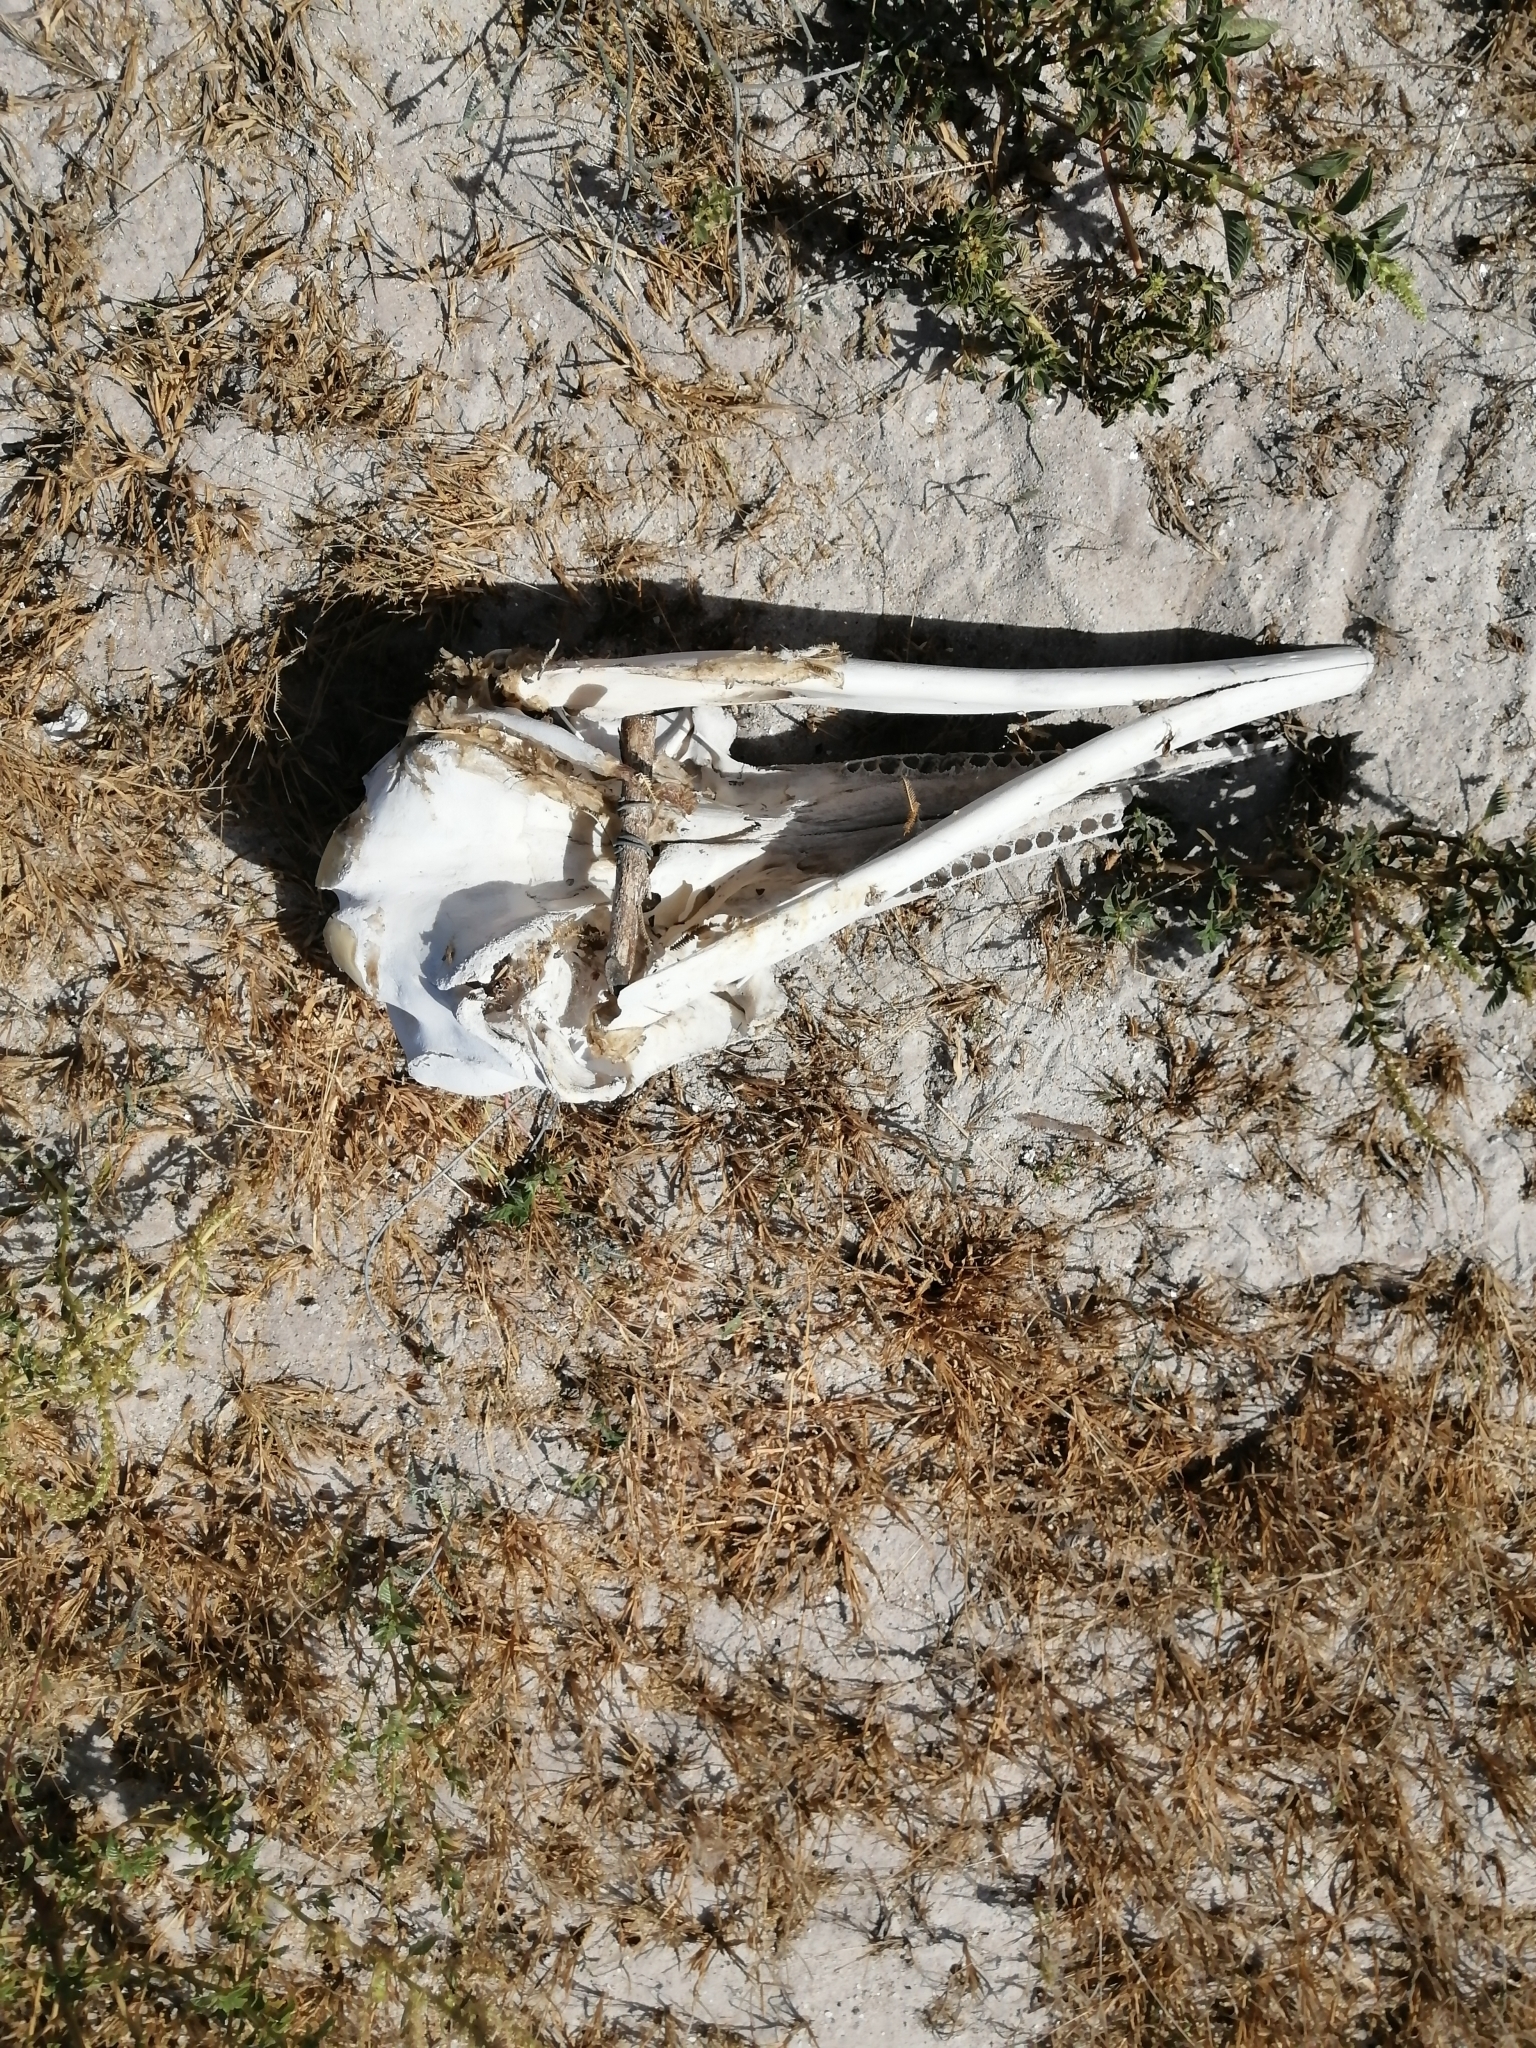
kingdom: Animalia
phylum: Chordata
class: Mammalia
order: Cetacea
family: Delphinidae
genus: Tursiops
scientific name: Tursiops truncatus
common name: Bottlenose dolphin
